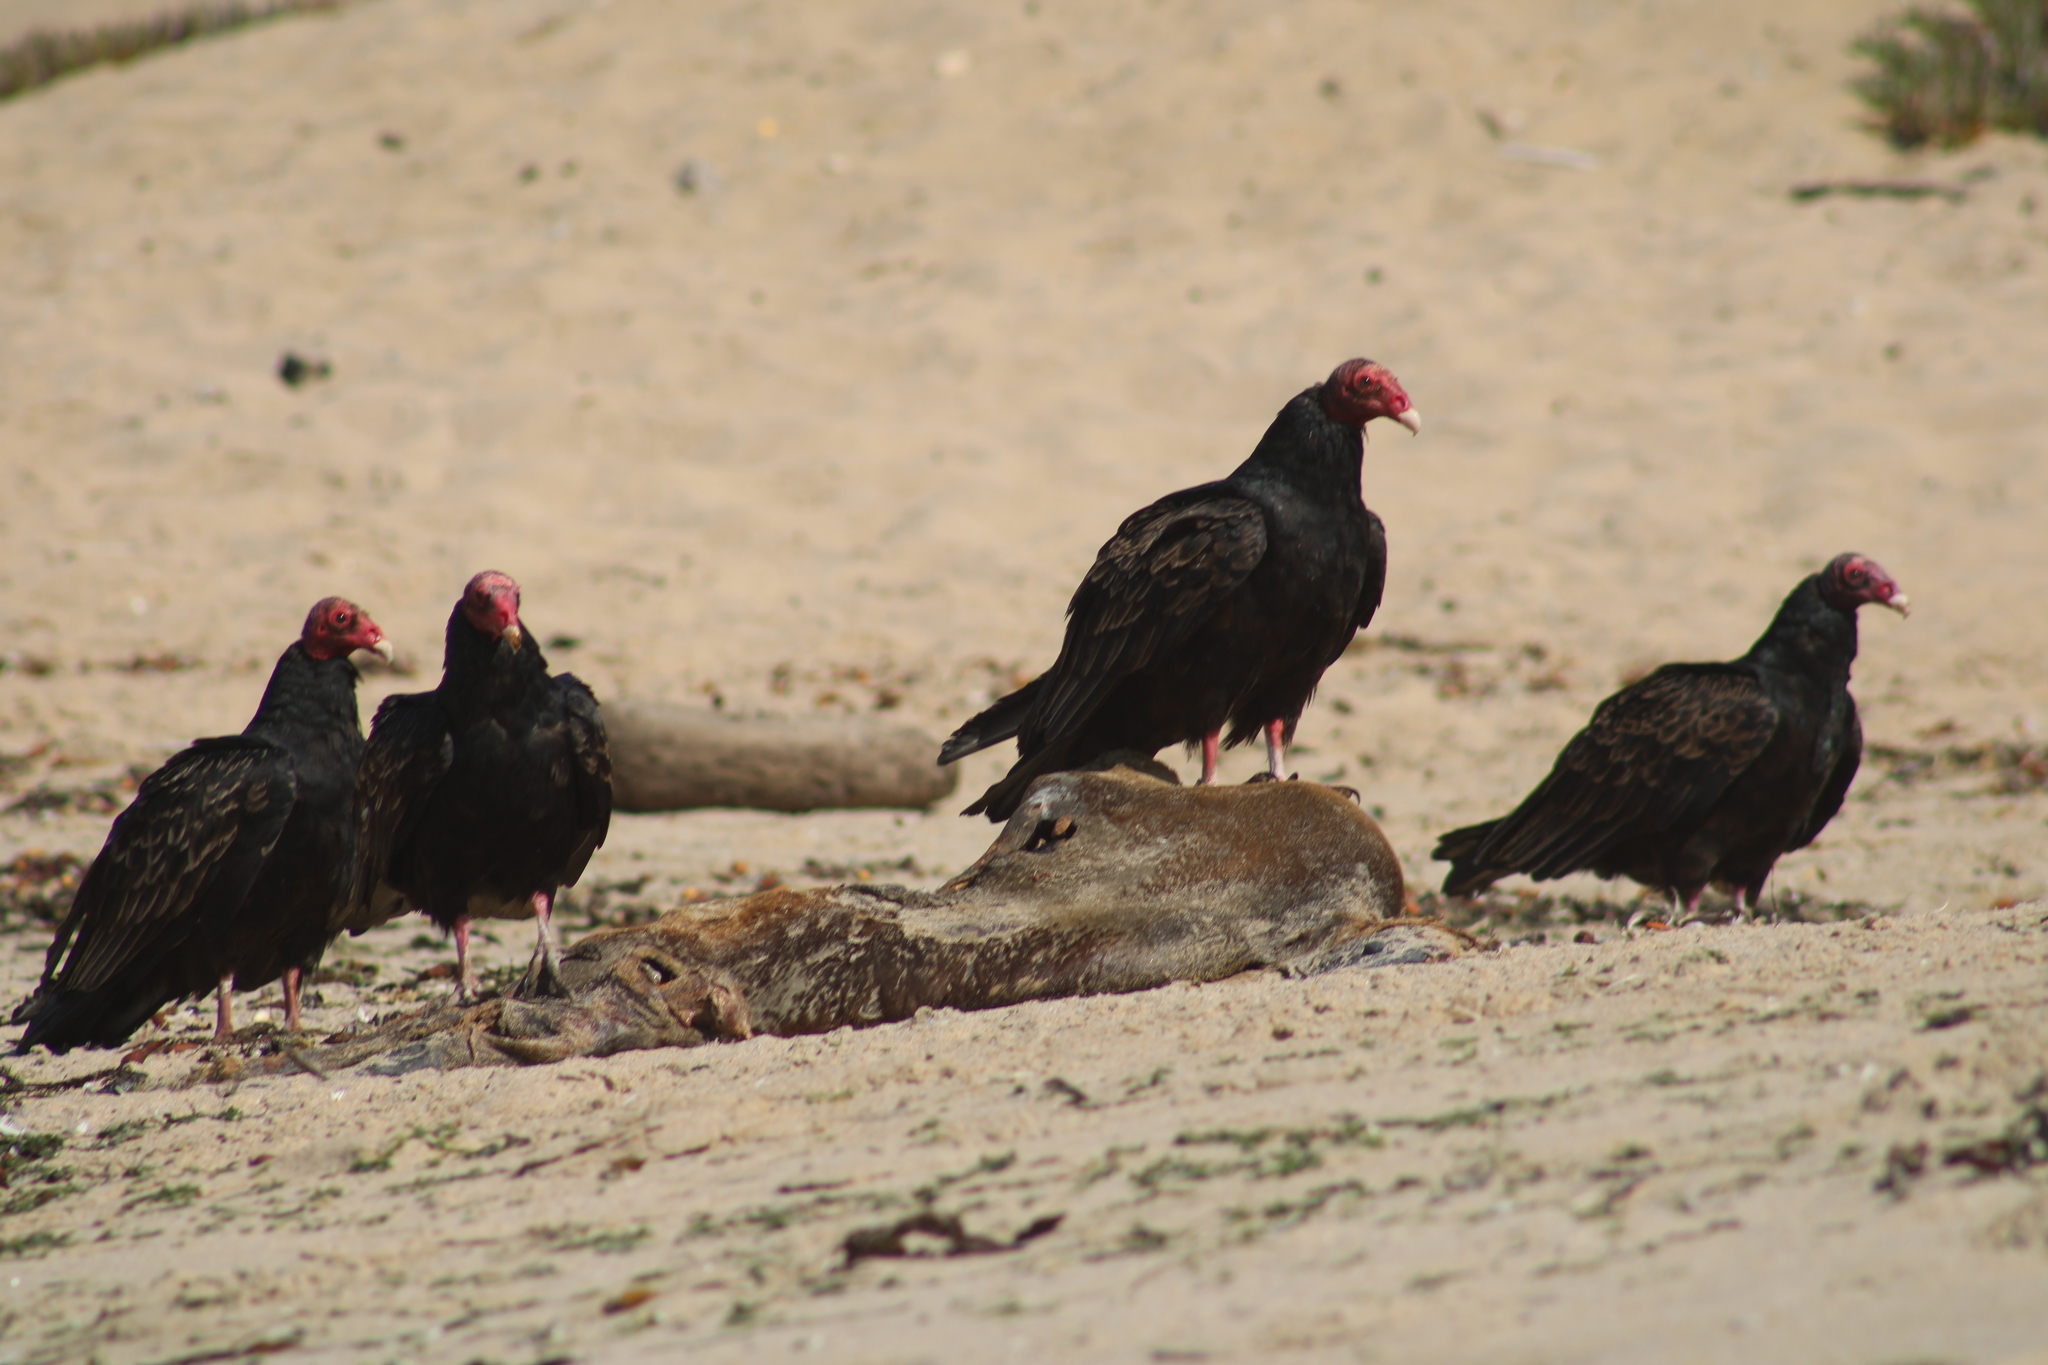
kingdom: Animalia
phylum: Chordata
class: Aves
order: Accipitriformes
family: Cathartidae
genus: Cathartes
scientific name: Cathartes aura
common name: Turkey vulture
